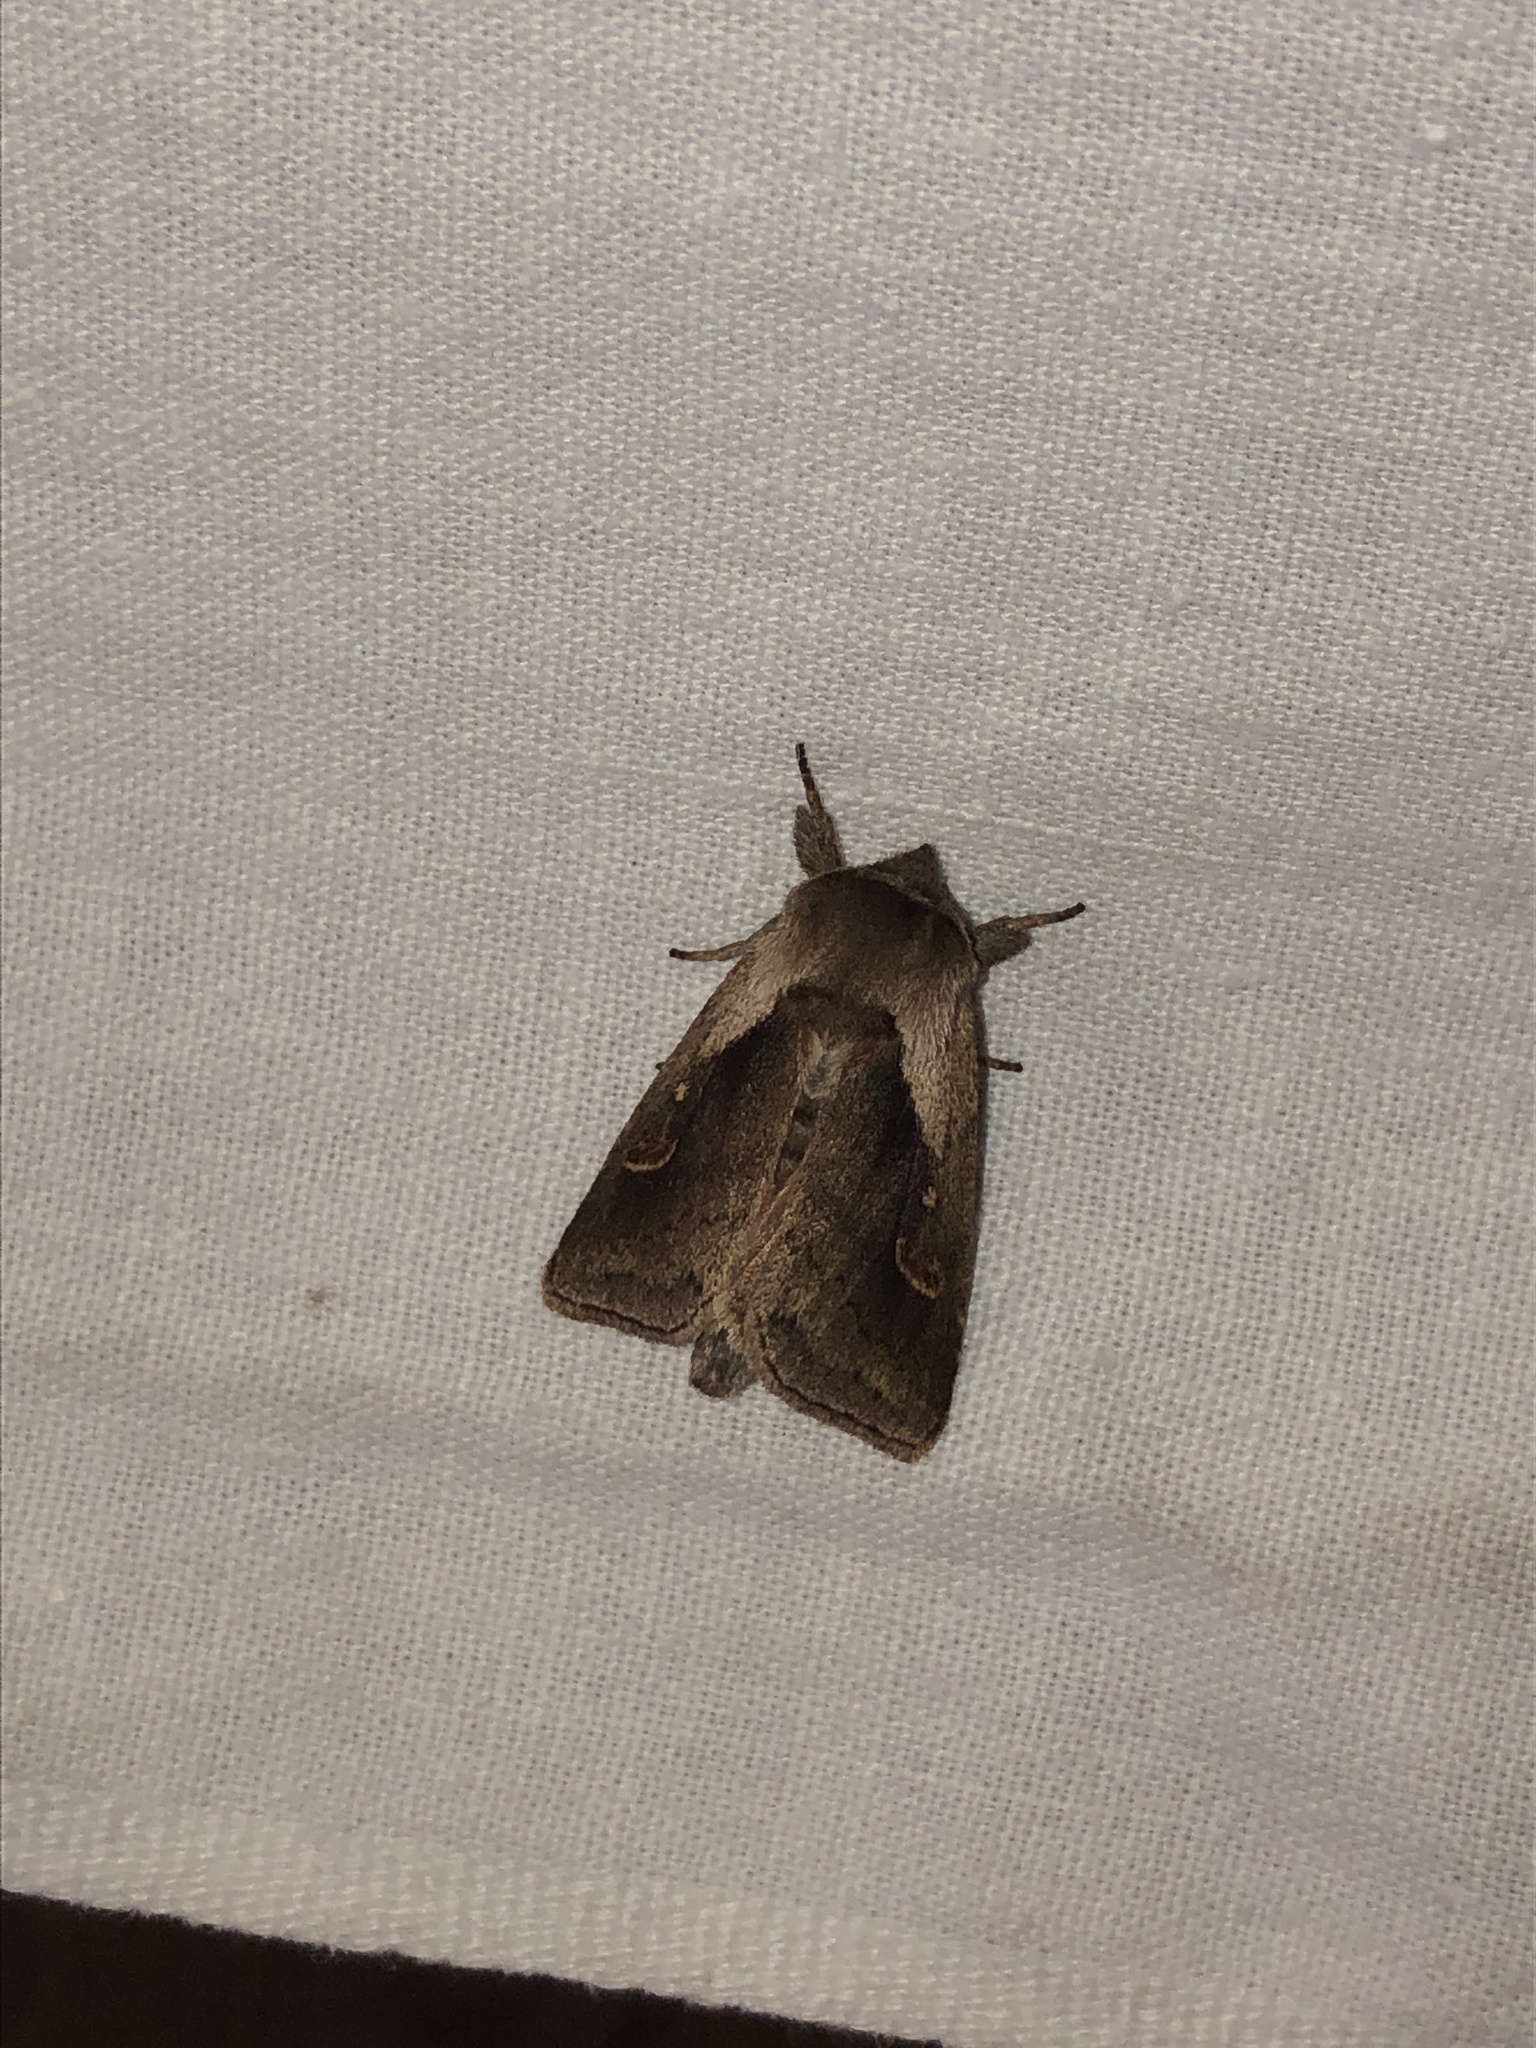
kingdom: Animalia
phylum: Arthropoda
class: Insecta
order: Lepidoptera
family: Noctuidae
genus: Bellura
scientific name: Bellura obliqua
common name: Cattail borer moth
